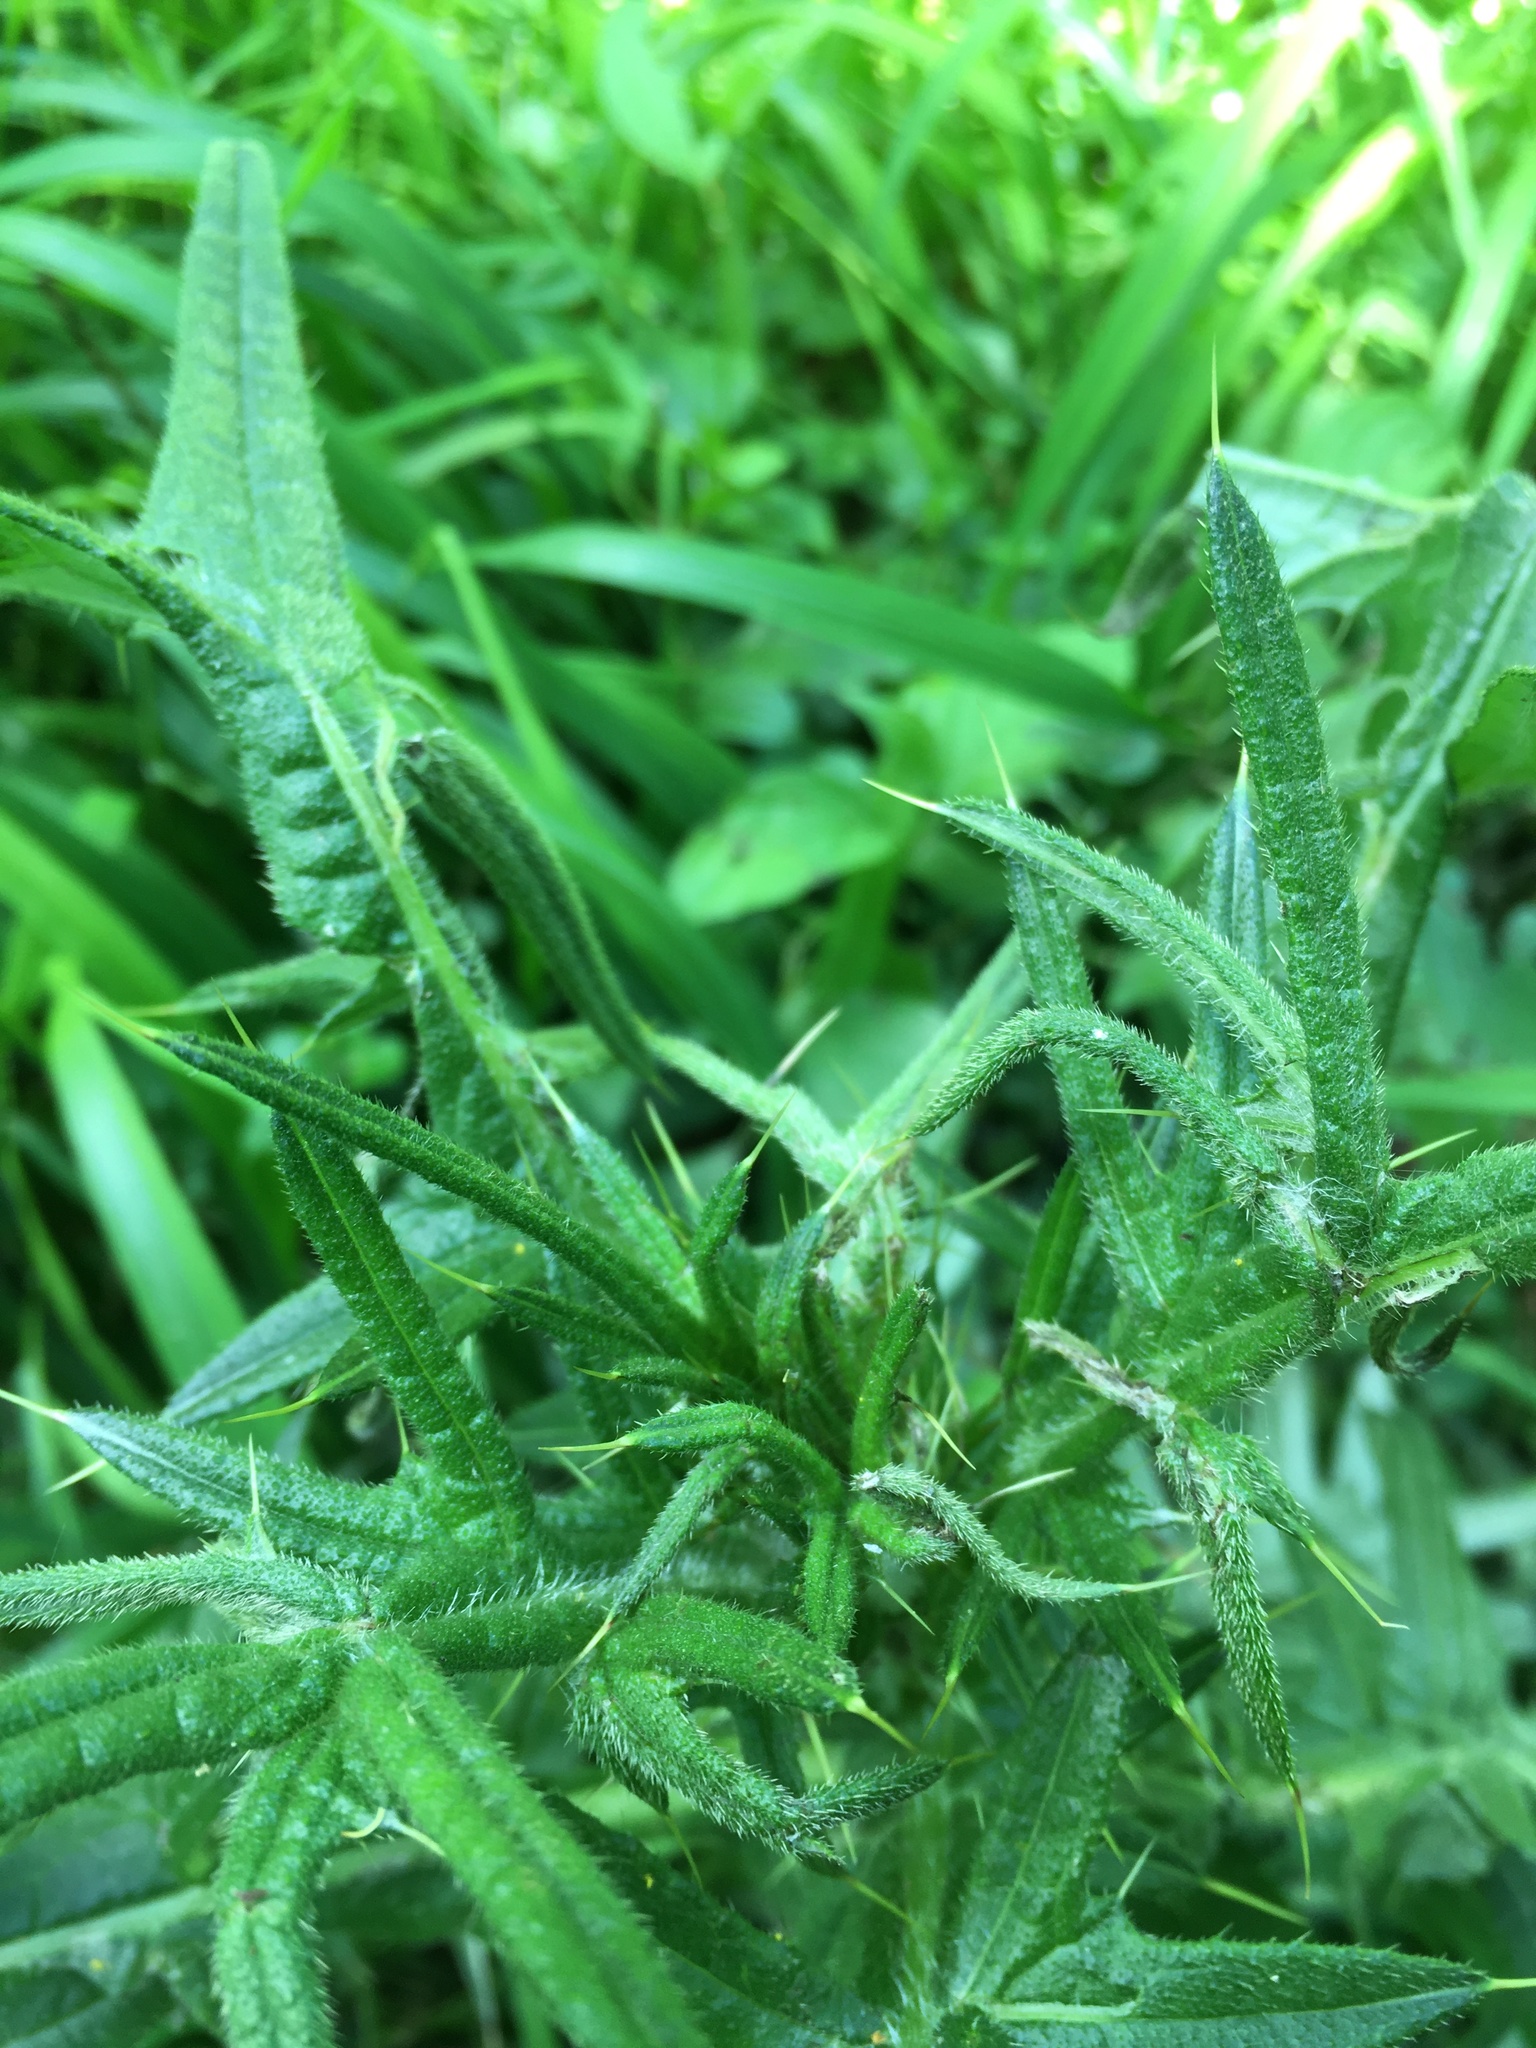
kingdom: Plantae
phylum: Tracheophyta
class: Magnoliopsida
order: Asterales
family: Asteraceae
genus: Cirsium
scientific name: Cirsium vulgare
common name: Bull thistle
